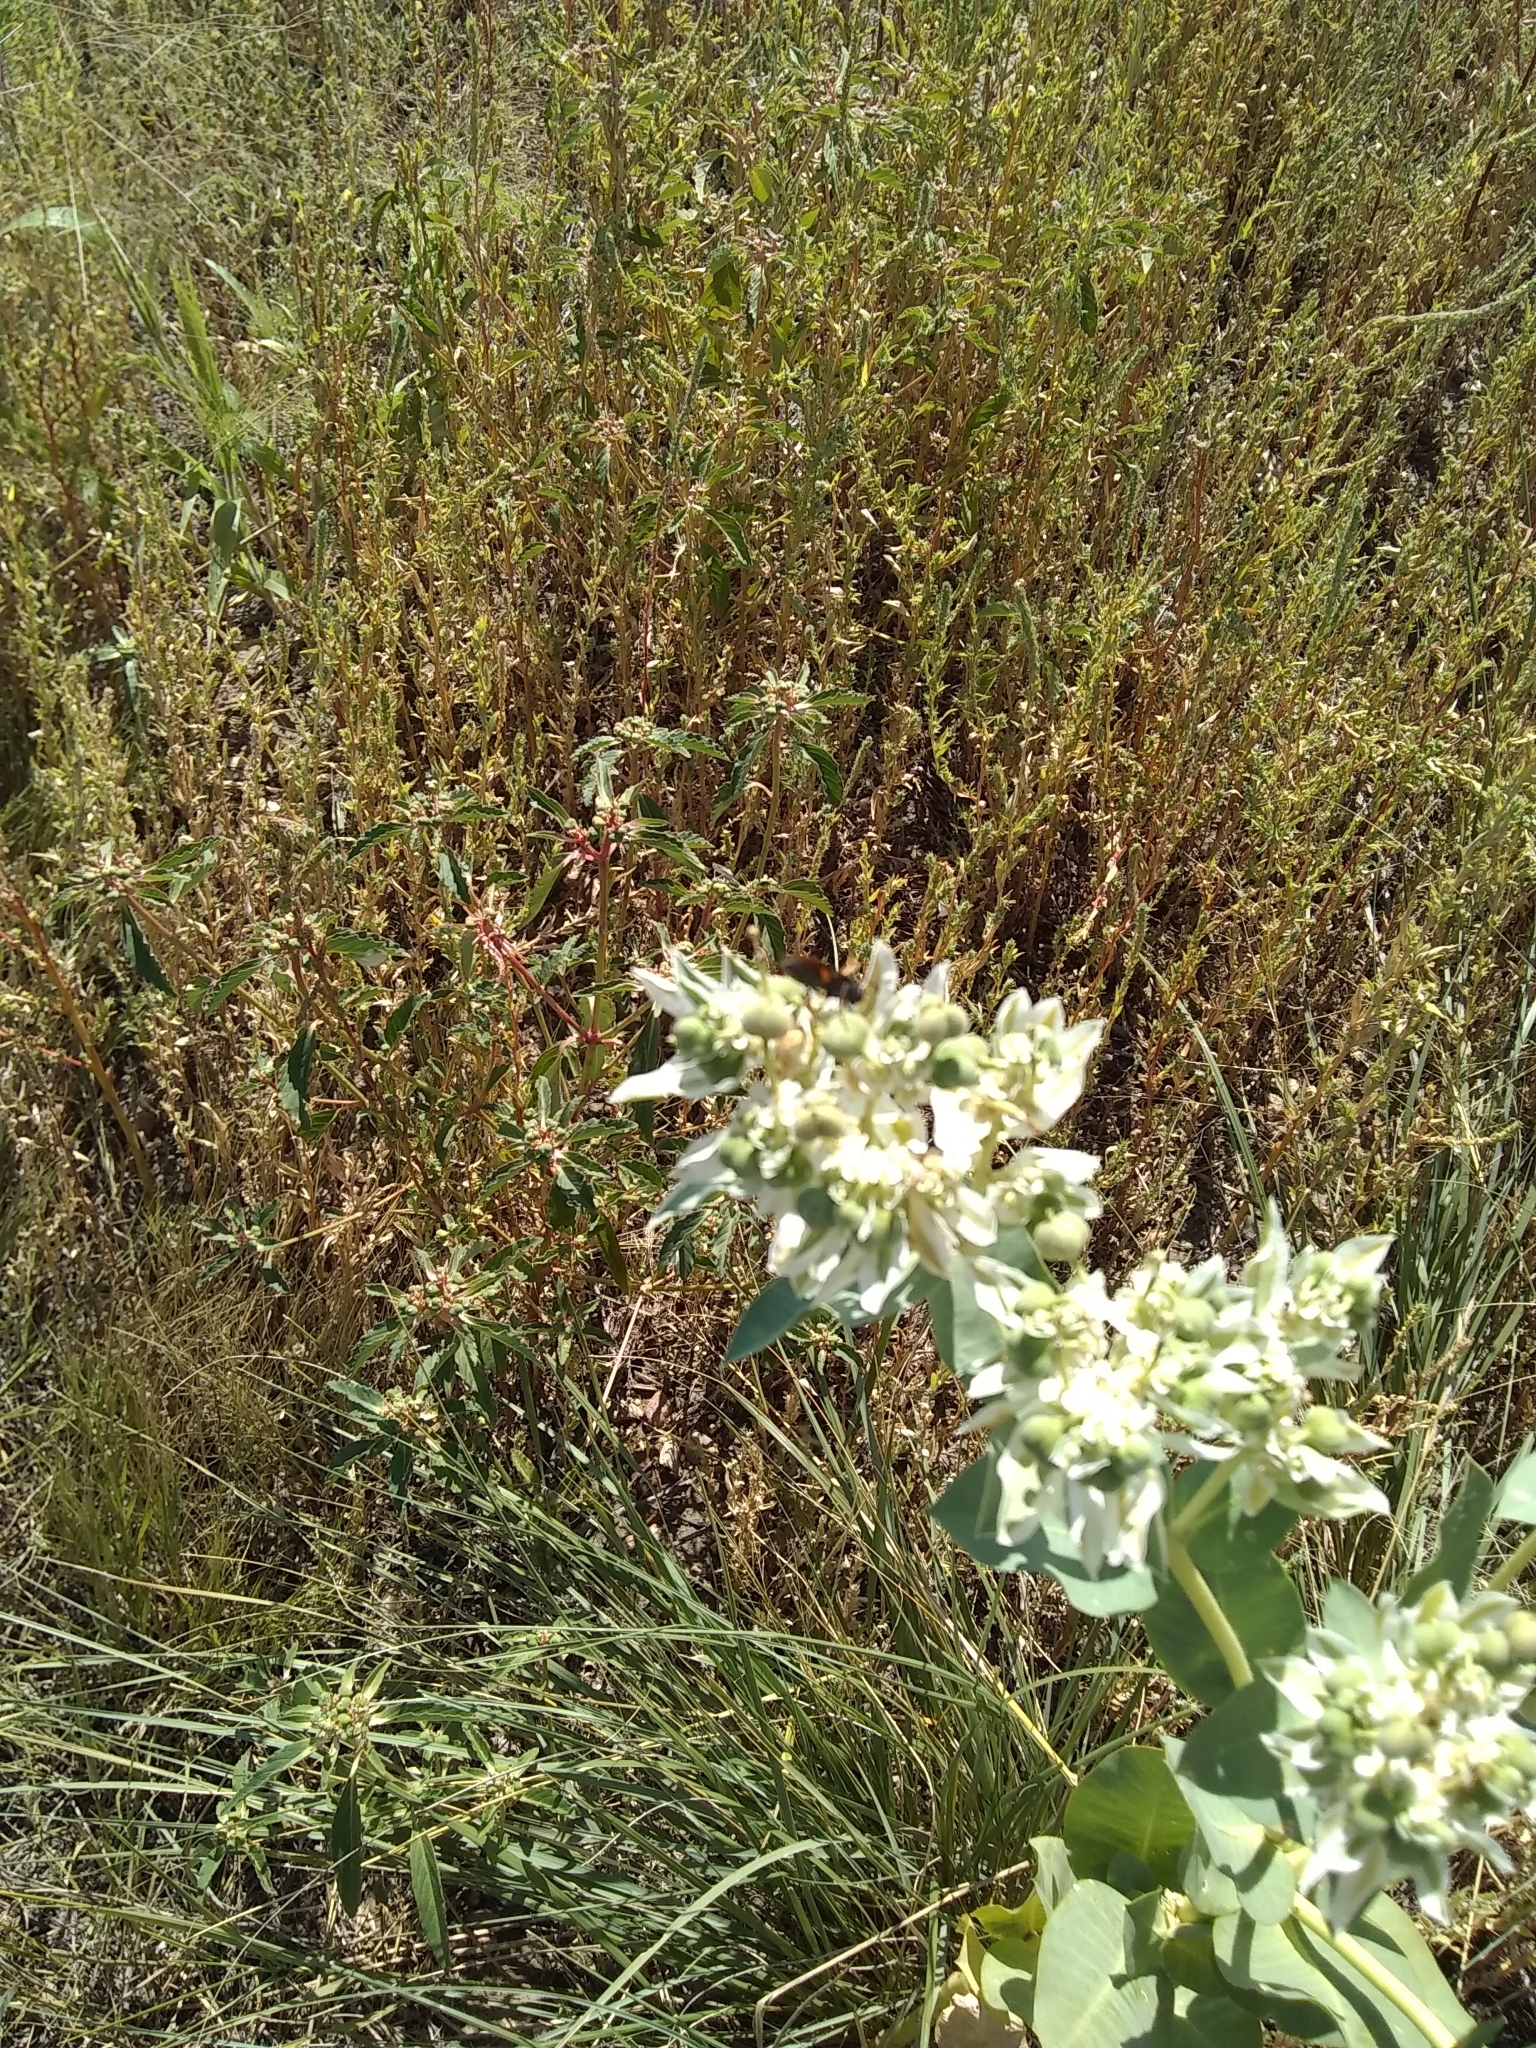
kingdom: Plantae
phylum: Tracheophyta
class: Magnoliopsida
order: Malpighiales
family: Euphorbiaceae
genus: Euphorbia
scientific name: Euphorbia marginata
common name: Ghostweed
